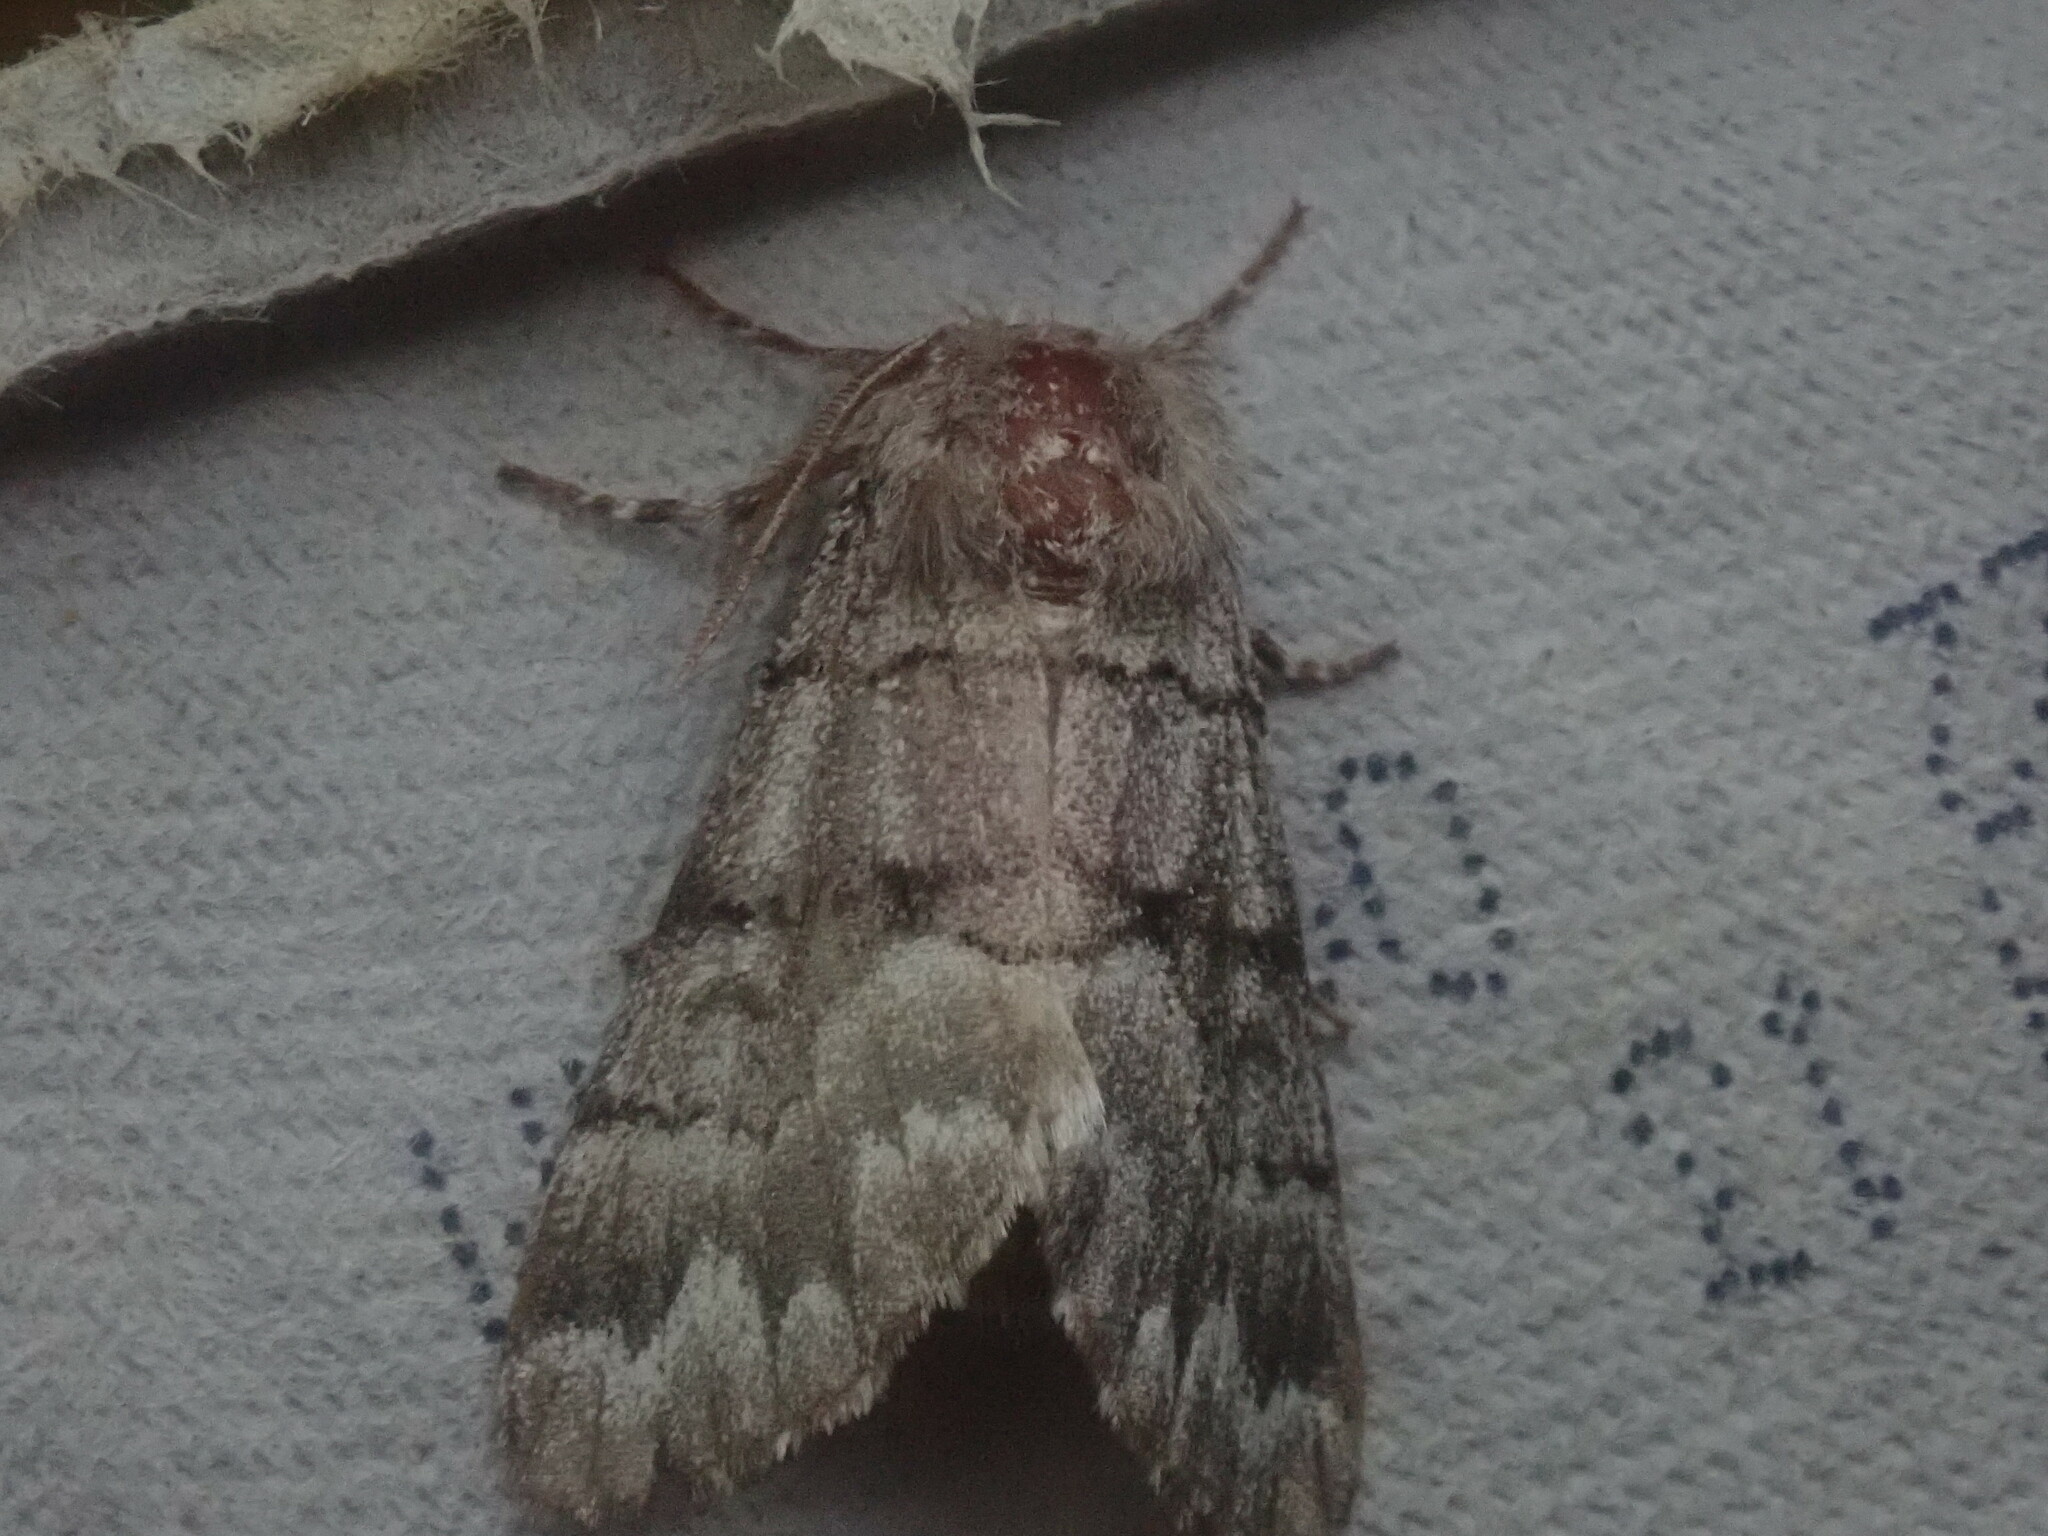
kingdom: Animalia
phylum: Arthropoda
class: Insecta
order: Lepidoptera
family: Noctuidae
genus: Panthea
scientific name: Panthea furcilla
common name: Eastern panthea moth
